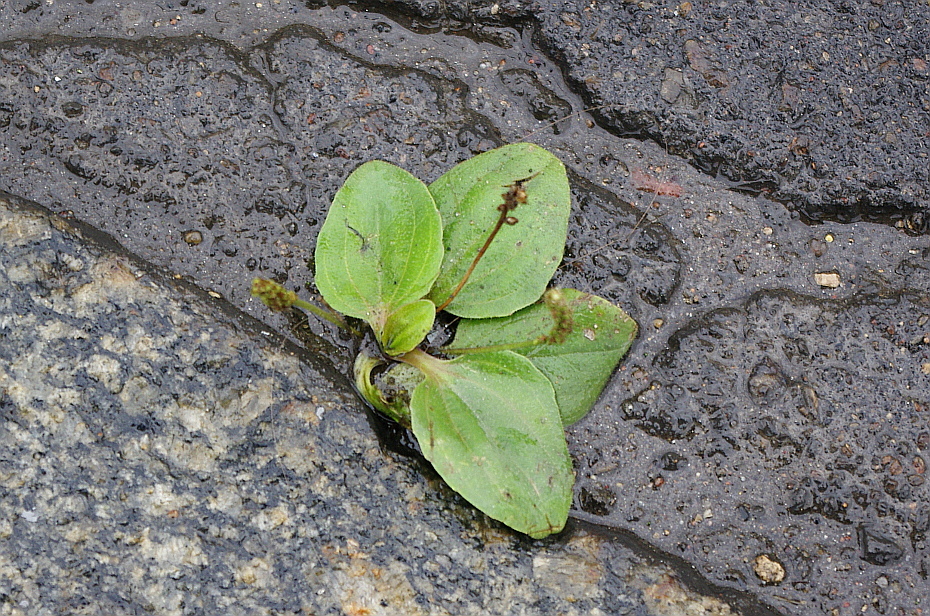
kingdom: Plantae
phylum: Tracheophyta
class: Magnoliopsida
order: Lamiales
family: Plantaginaceae
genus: Plantago
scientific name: Plantago major
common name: Common plantain
